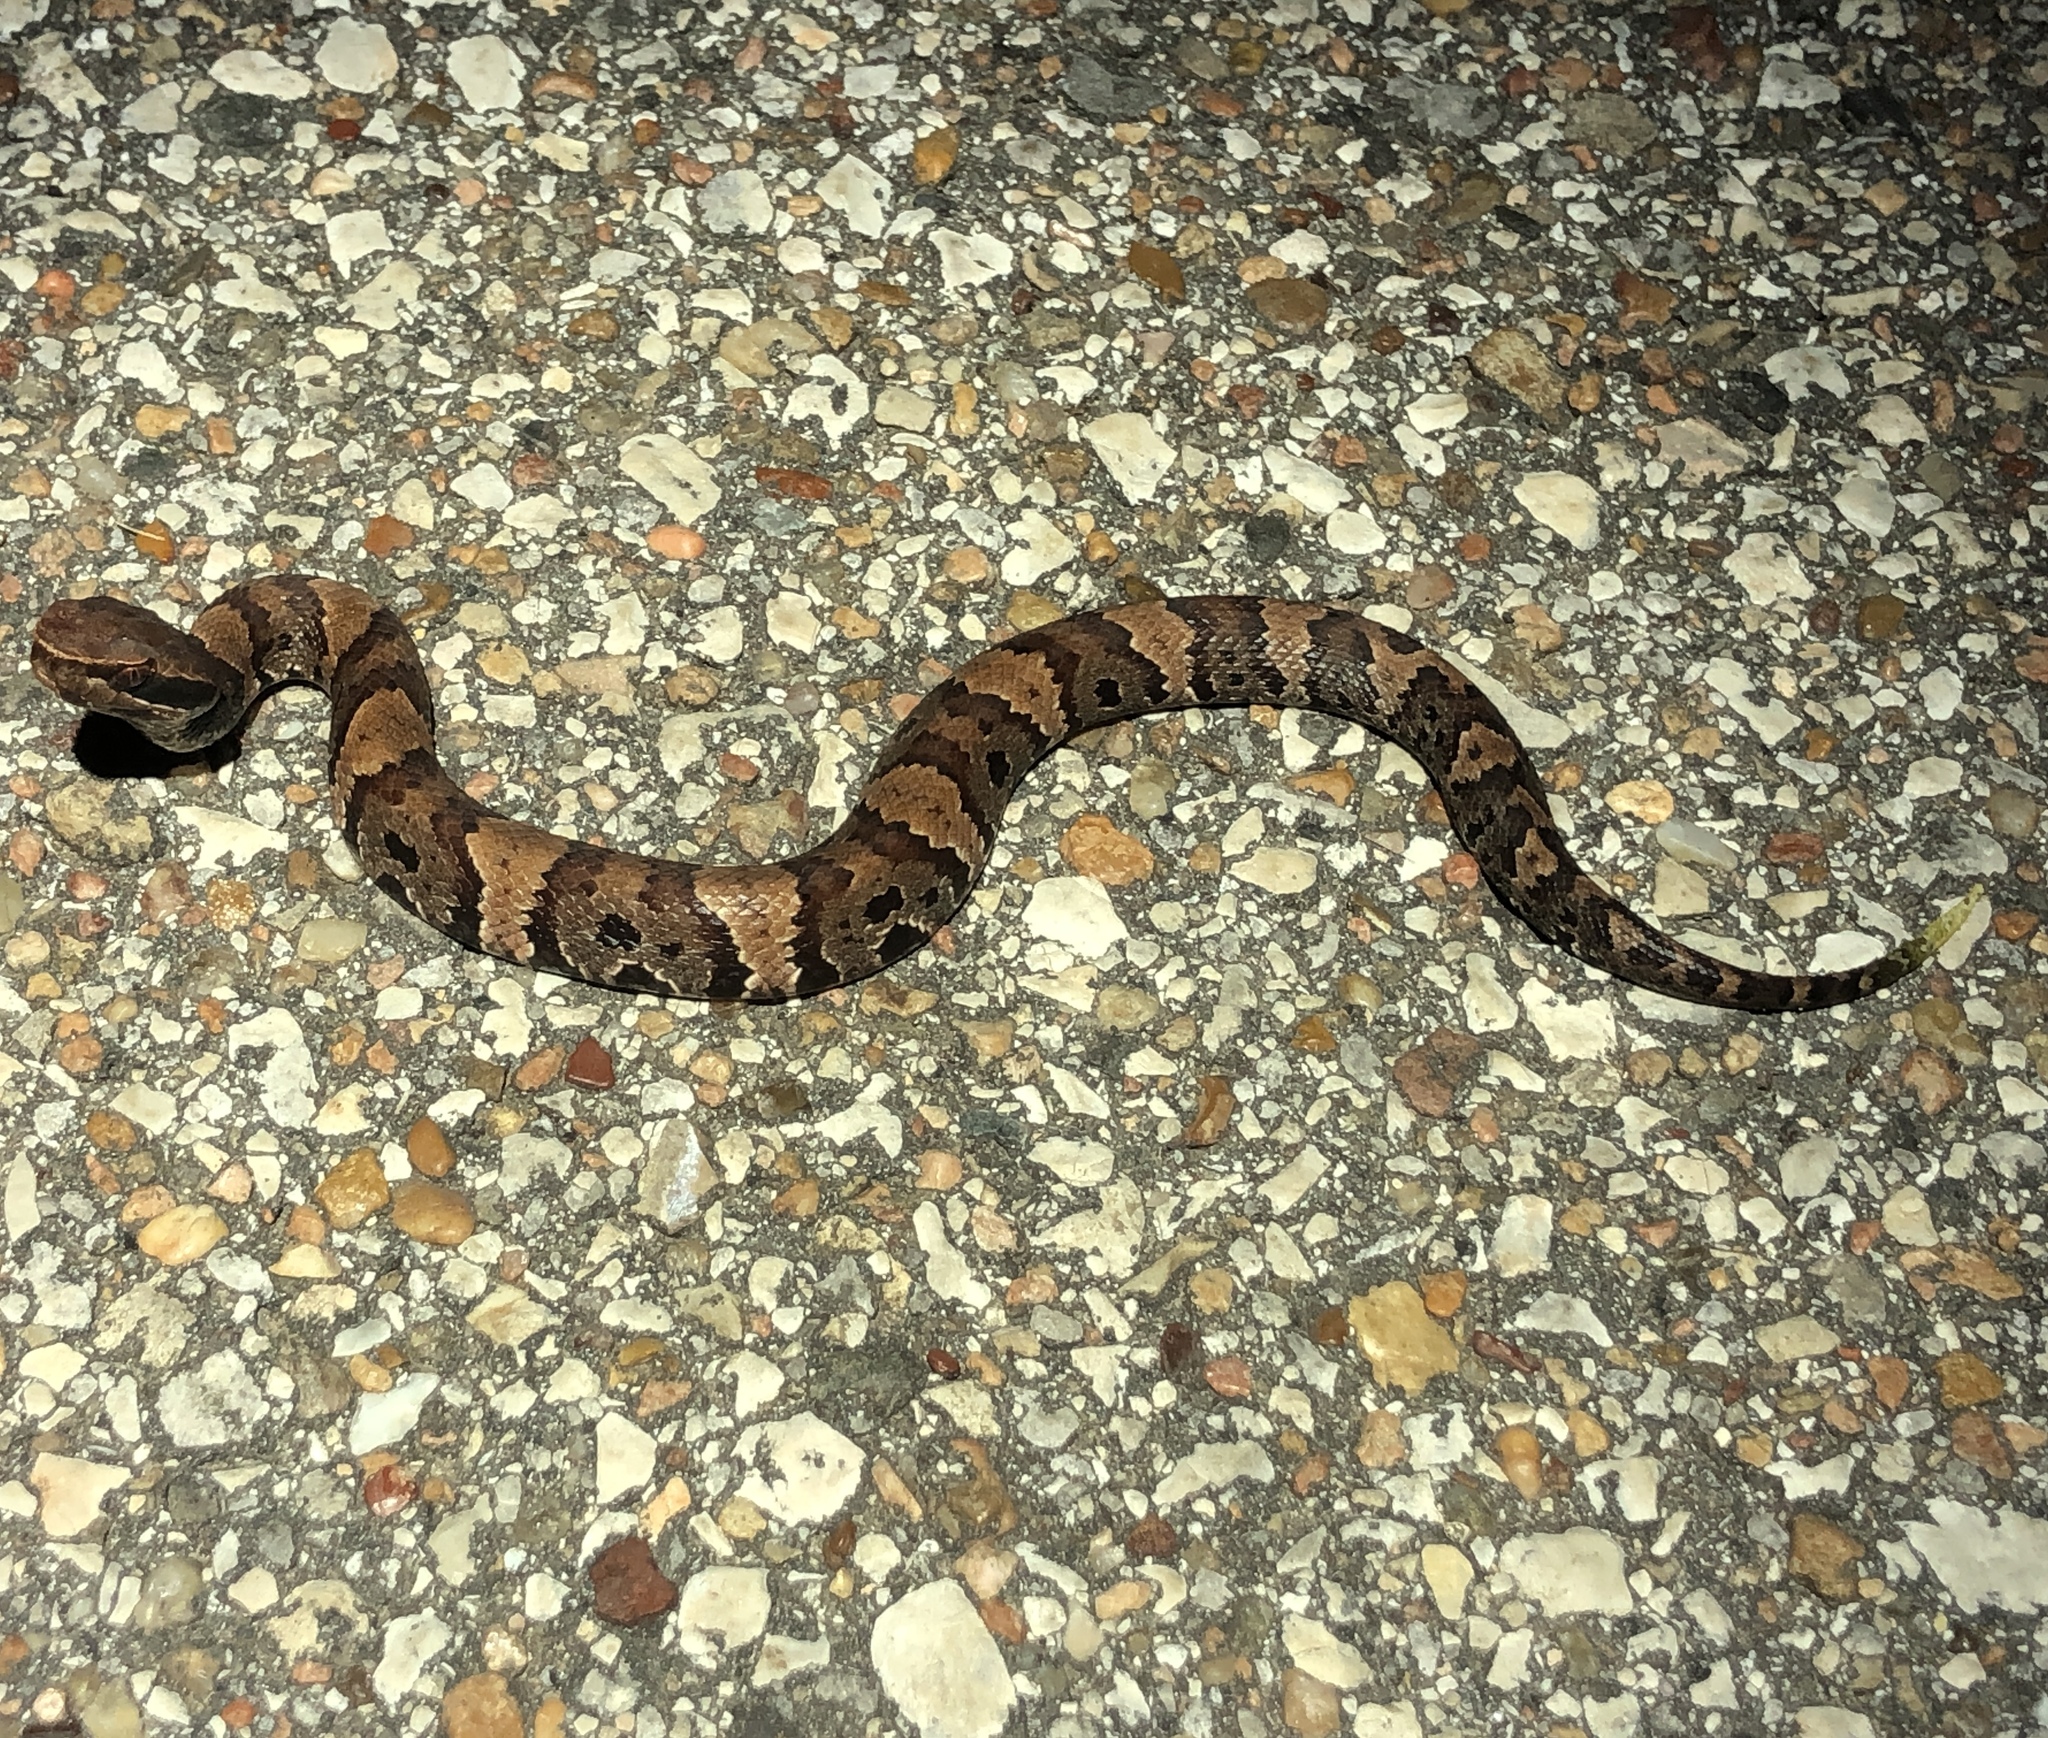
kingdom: Animalia
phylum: Chordata
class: Squamata
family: Viperidae
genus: Agkistrodon
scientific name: Agkistrodon piscivorus
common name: Cottonmouth
